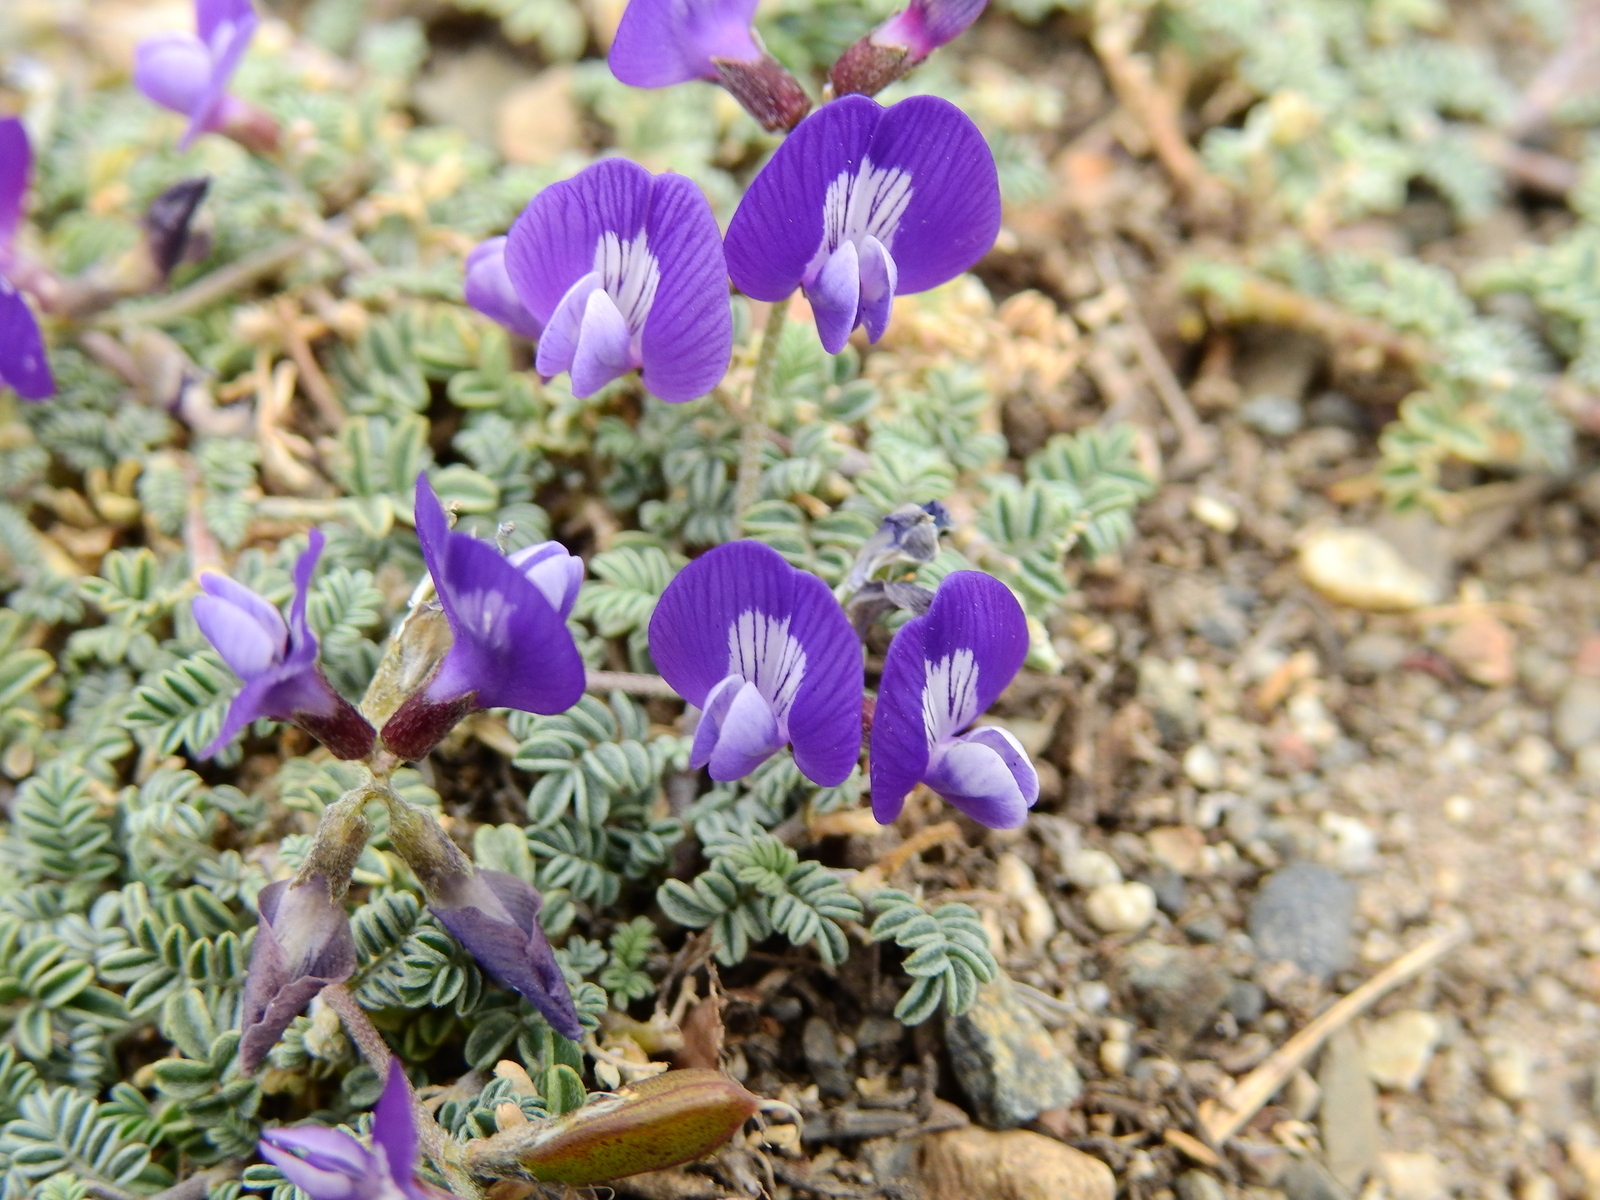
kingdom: Plantae
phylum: Tracheophyta
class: Magnoliopsida
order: Fabales
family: Fabaceae
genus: Astragalus
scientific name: Astragalus arnottianus
